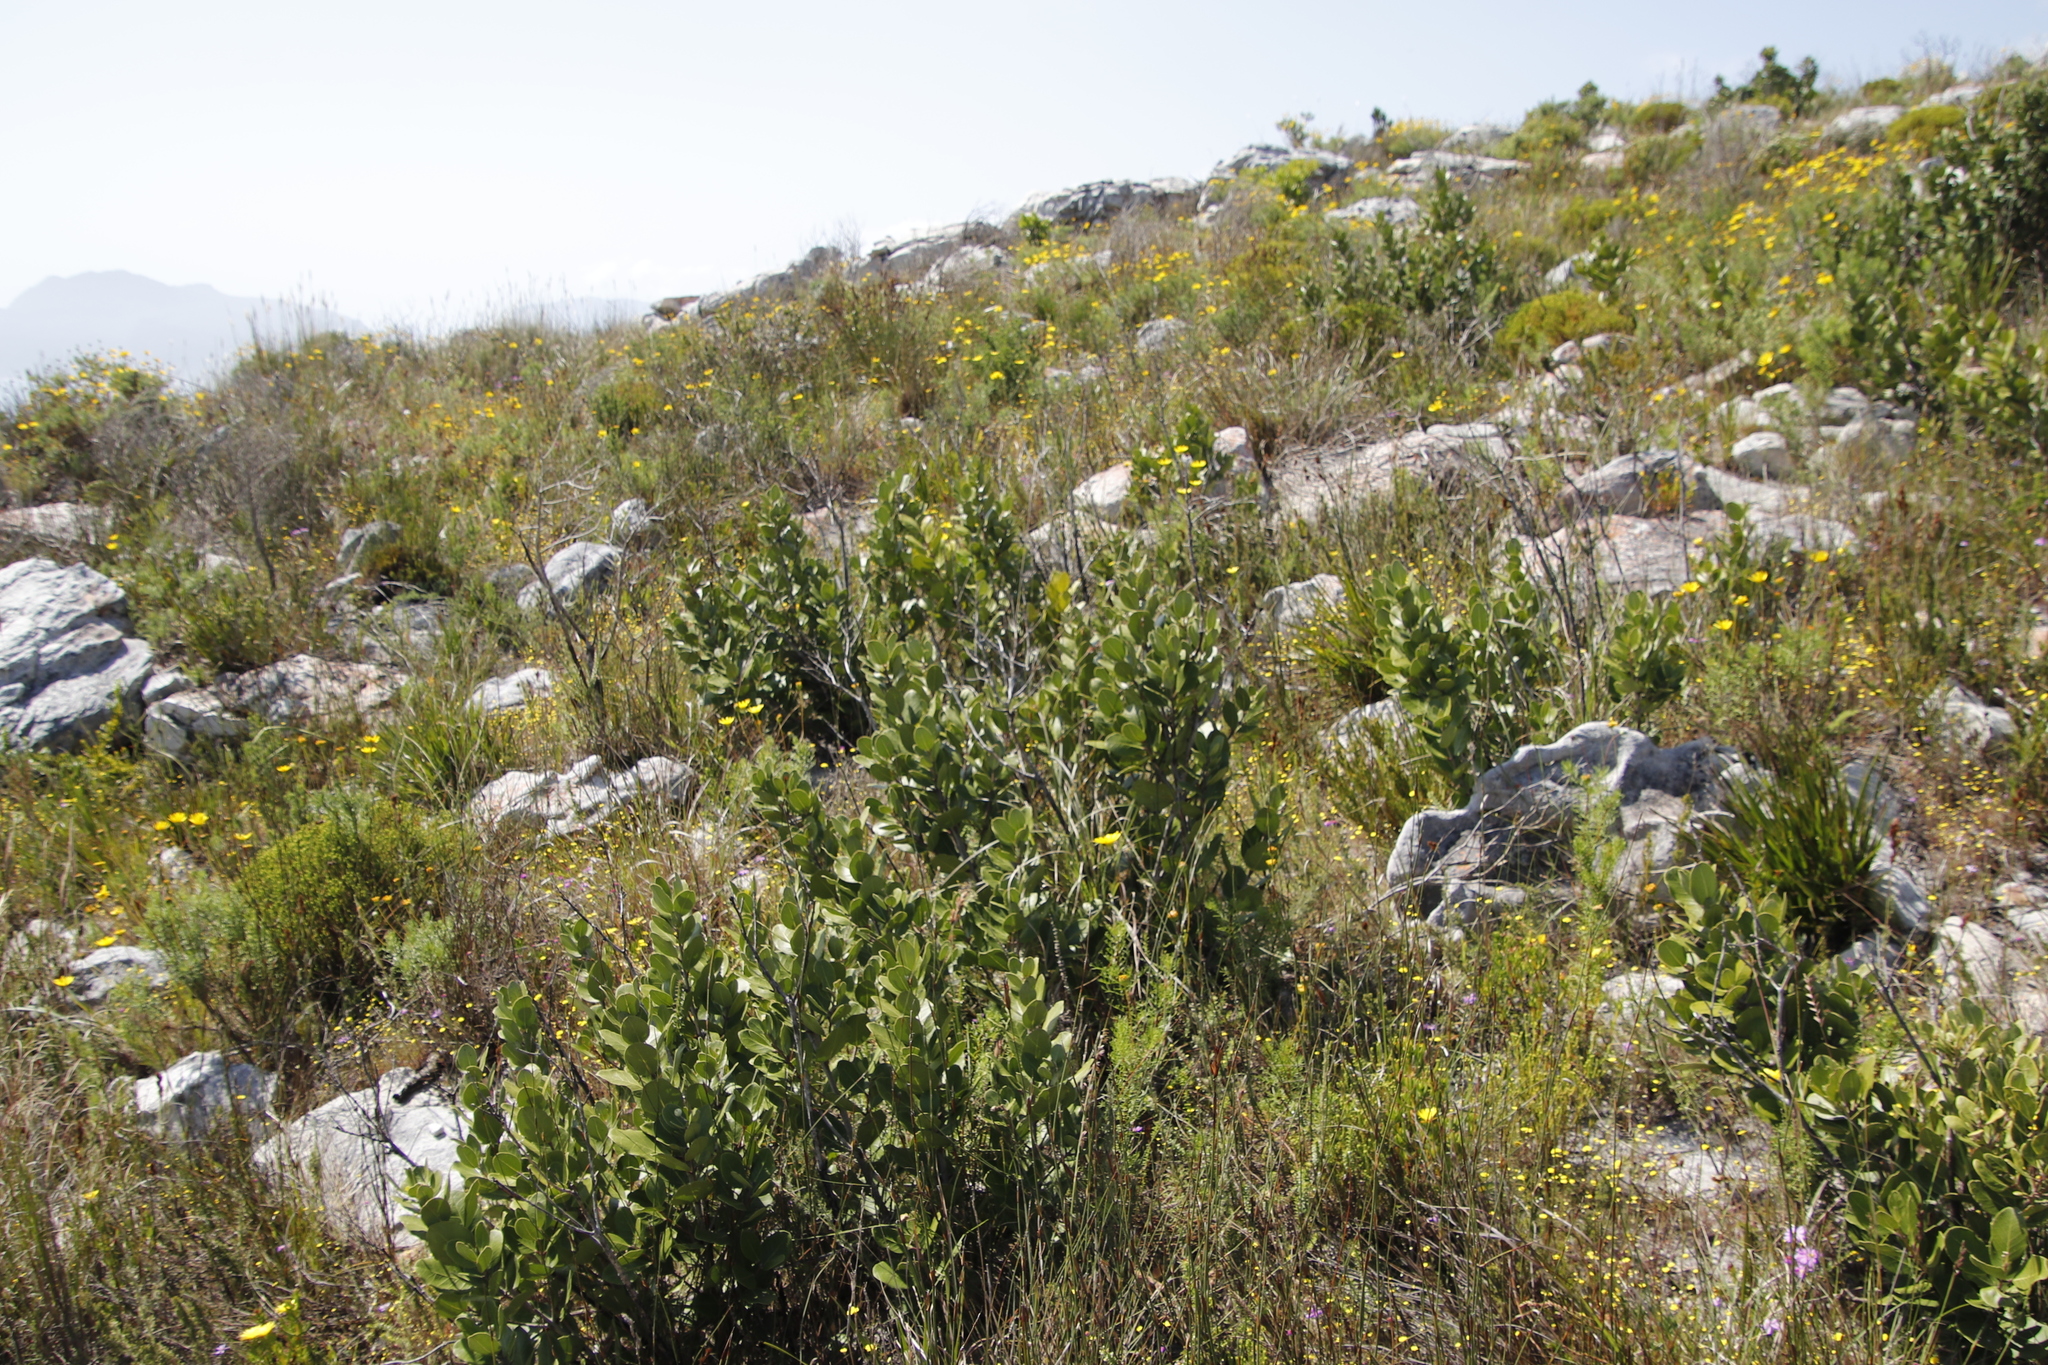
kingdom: Plantae
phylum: Tracheophyta
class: Magnoliopsida
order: Lamiales
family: Oleaceae
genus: Olea
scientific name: Olea capensis
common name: Black ironwood
